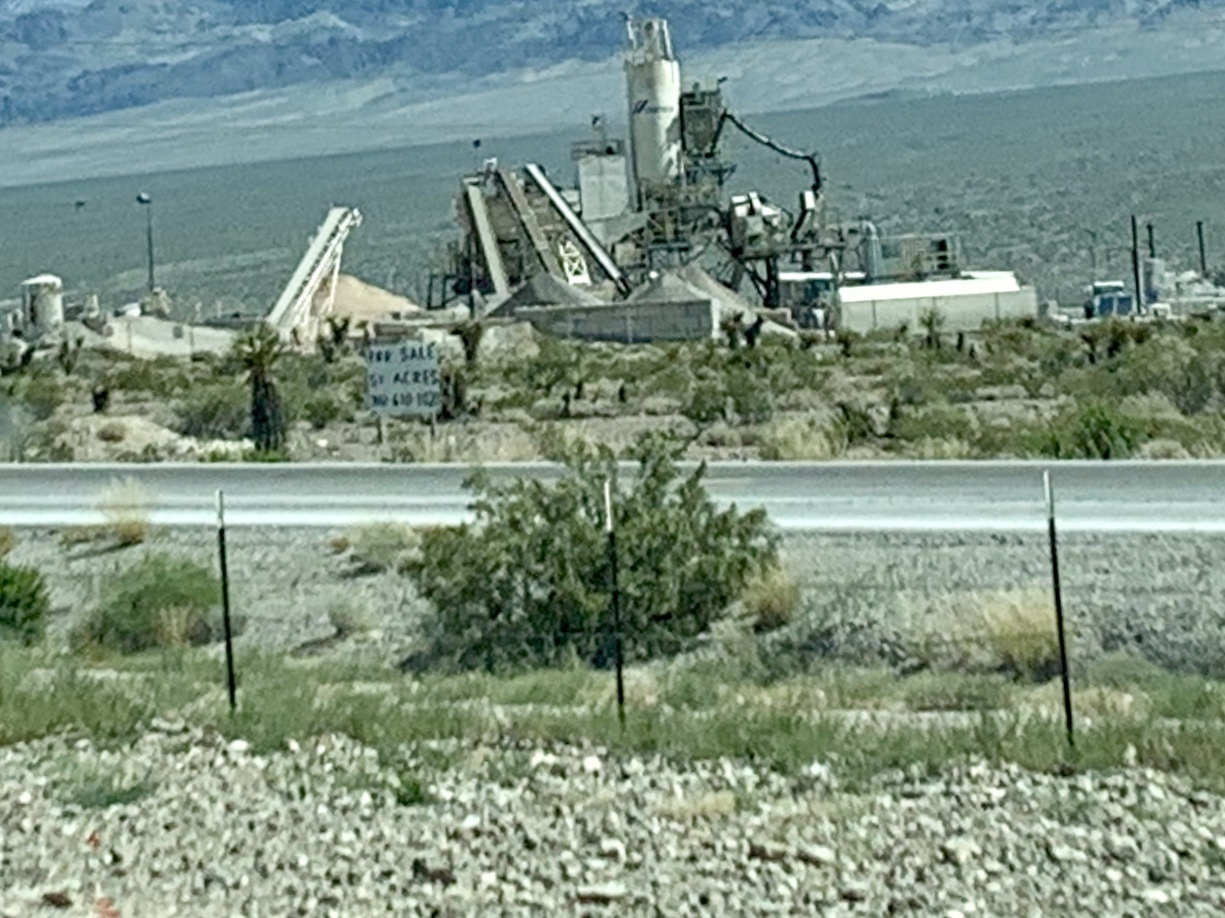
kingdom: Plantae
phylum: Tracheophyta
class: Magnoliopsida
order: Zygophyllales
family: Zygophyllaceae
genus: Larrea
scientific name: Larrea tridentata
